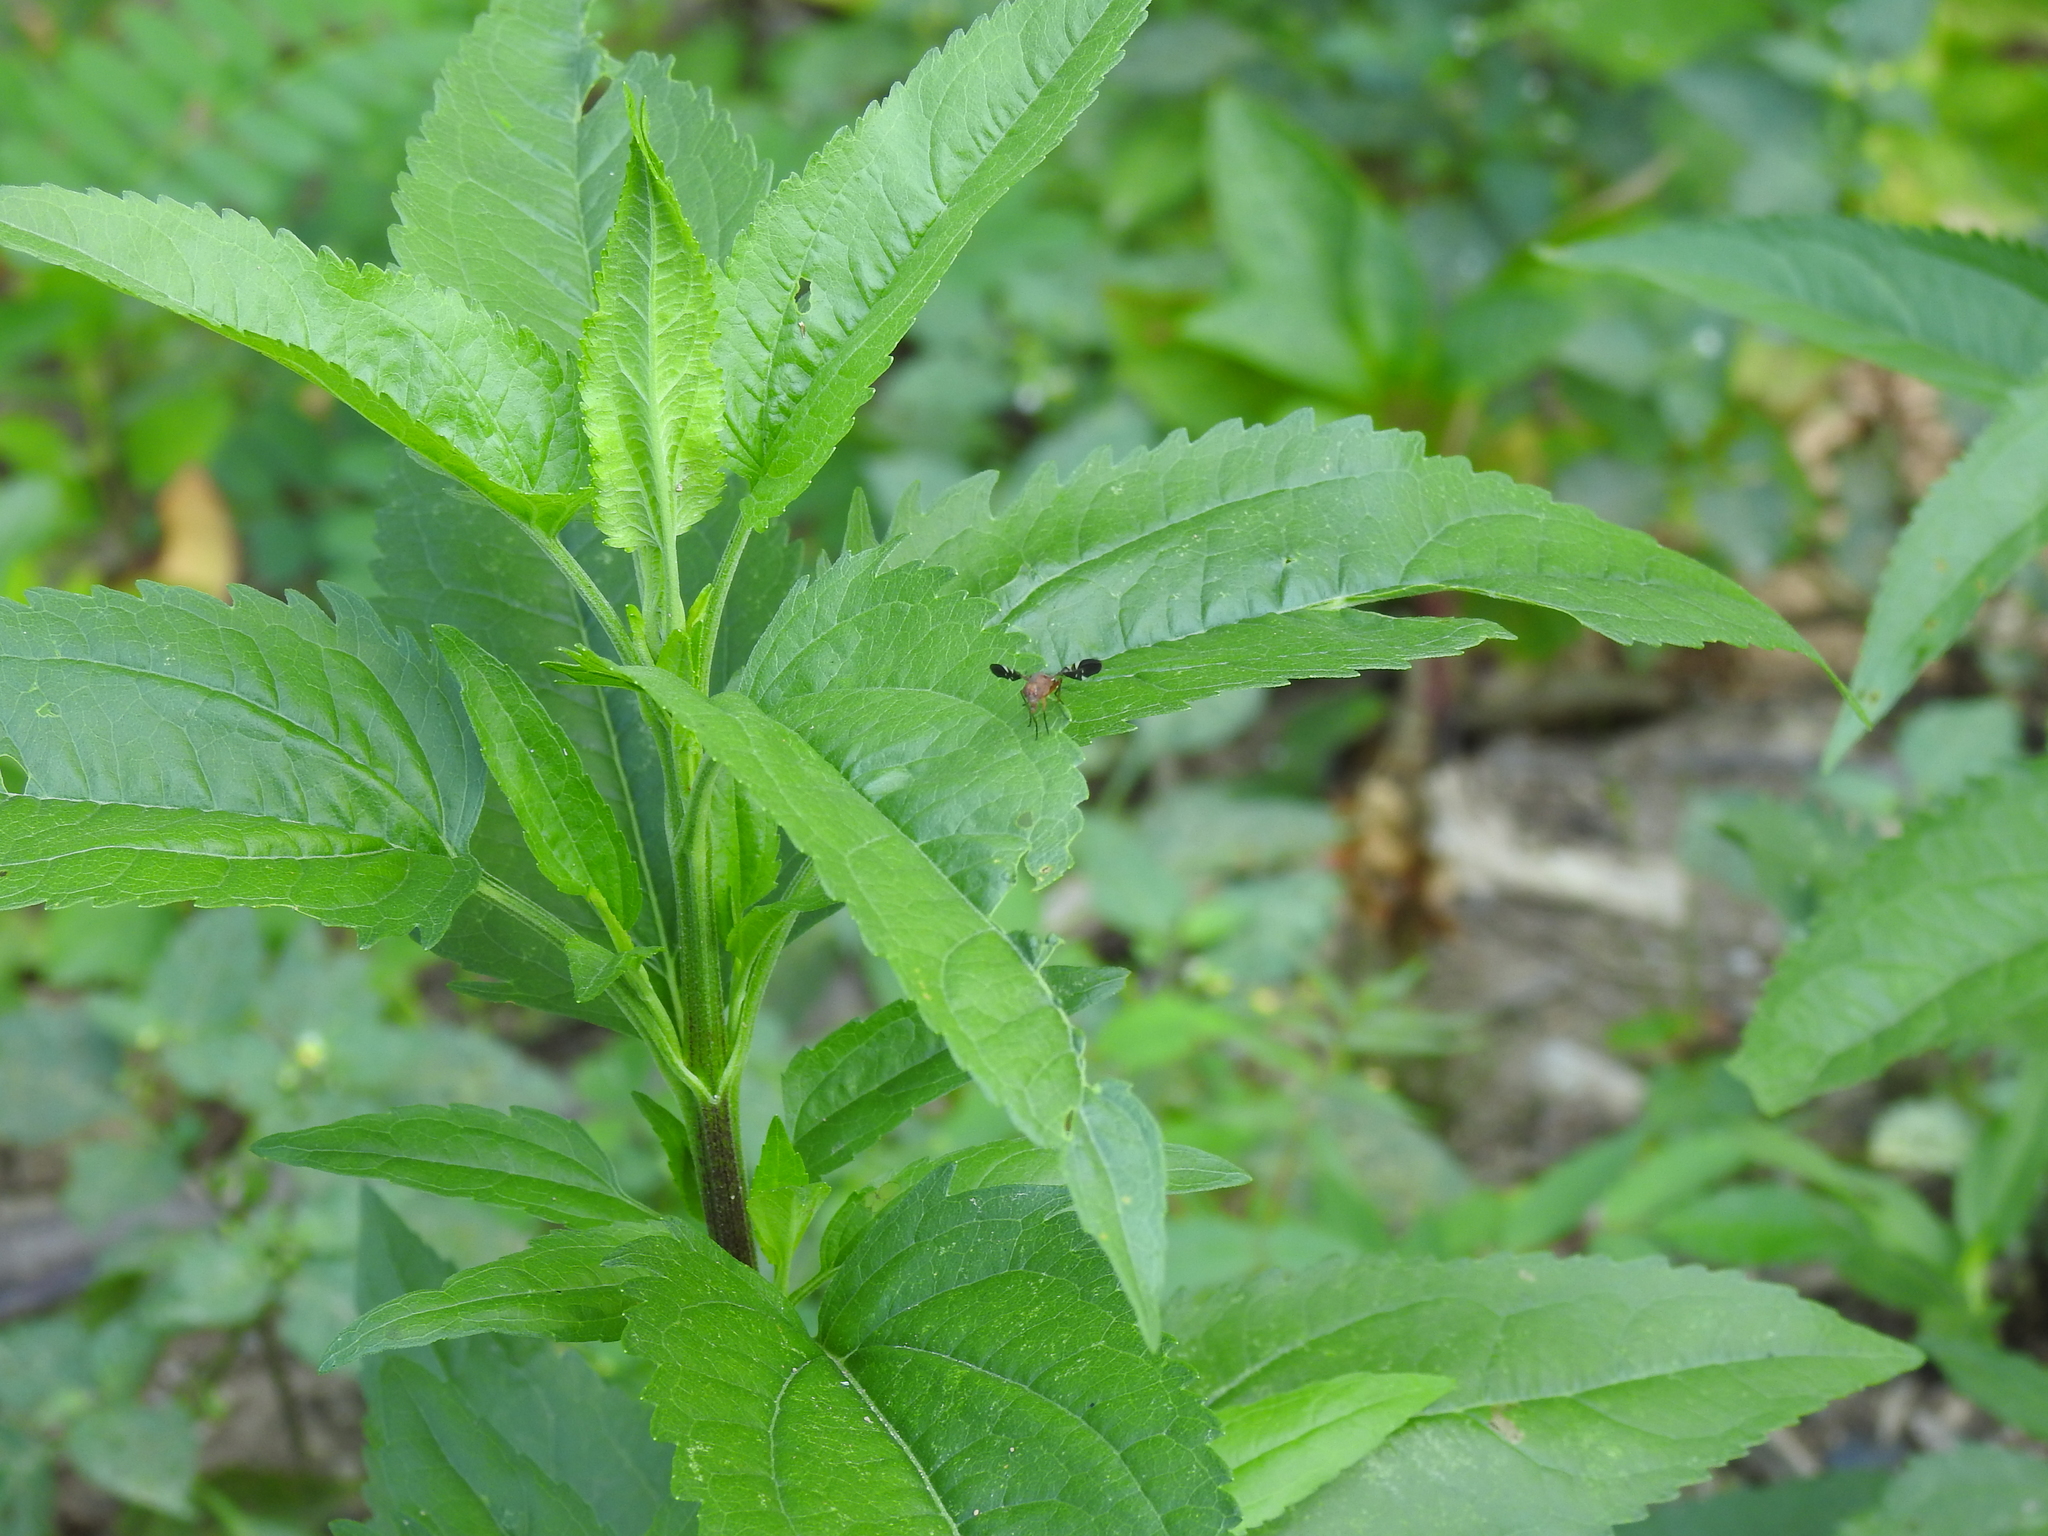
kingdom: Animalia
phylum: Arthropoda
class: Insecta
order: Diptera
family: Ulidiidae
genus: Delphinia
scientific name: Delphinia picta
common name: Common picture-winged fly
